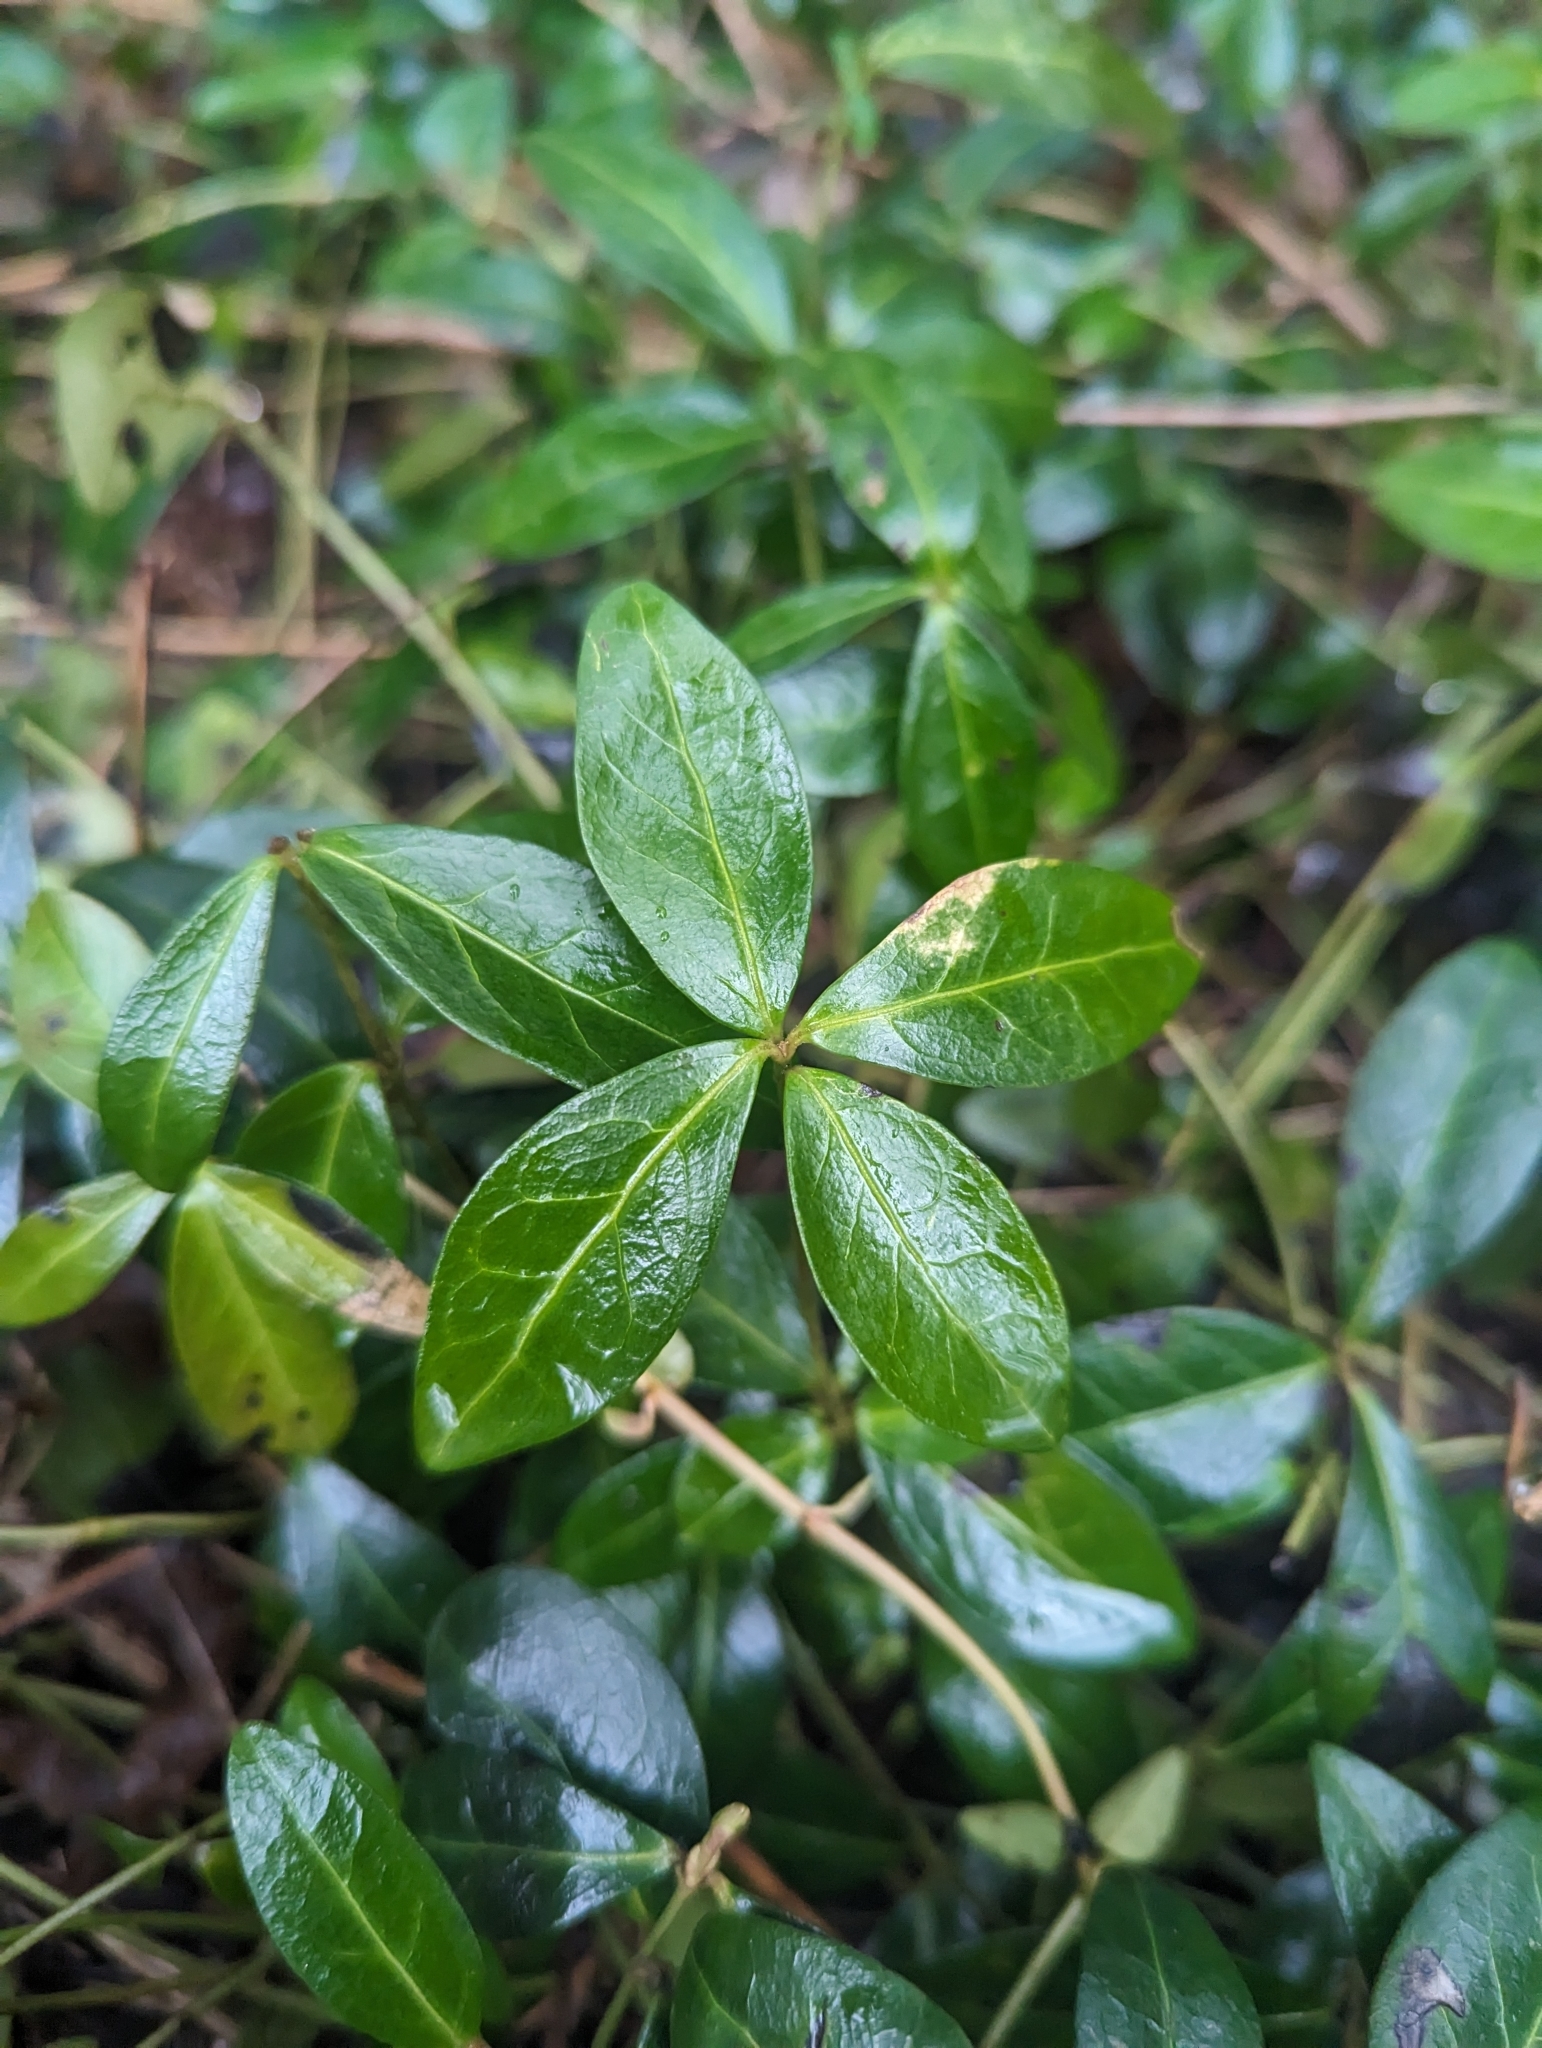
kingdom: Plantae
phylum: Tracheophyta
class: Magnoliopsida
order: Gentianales
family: Apocynaceae
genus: Vinca
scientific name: Vinca minor
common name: Lesser periwinkle
